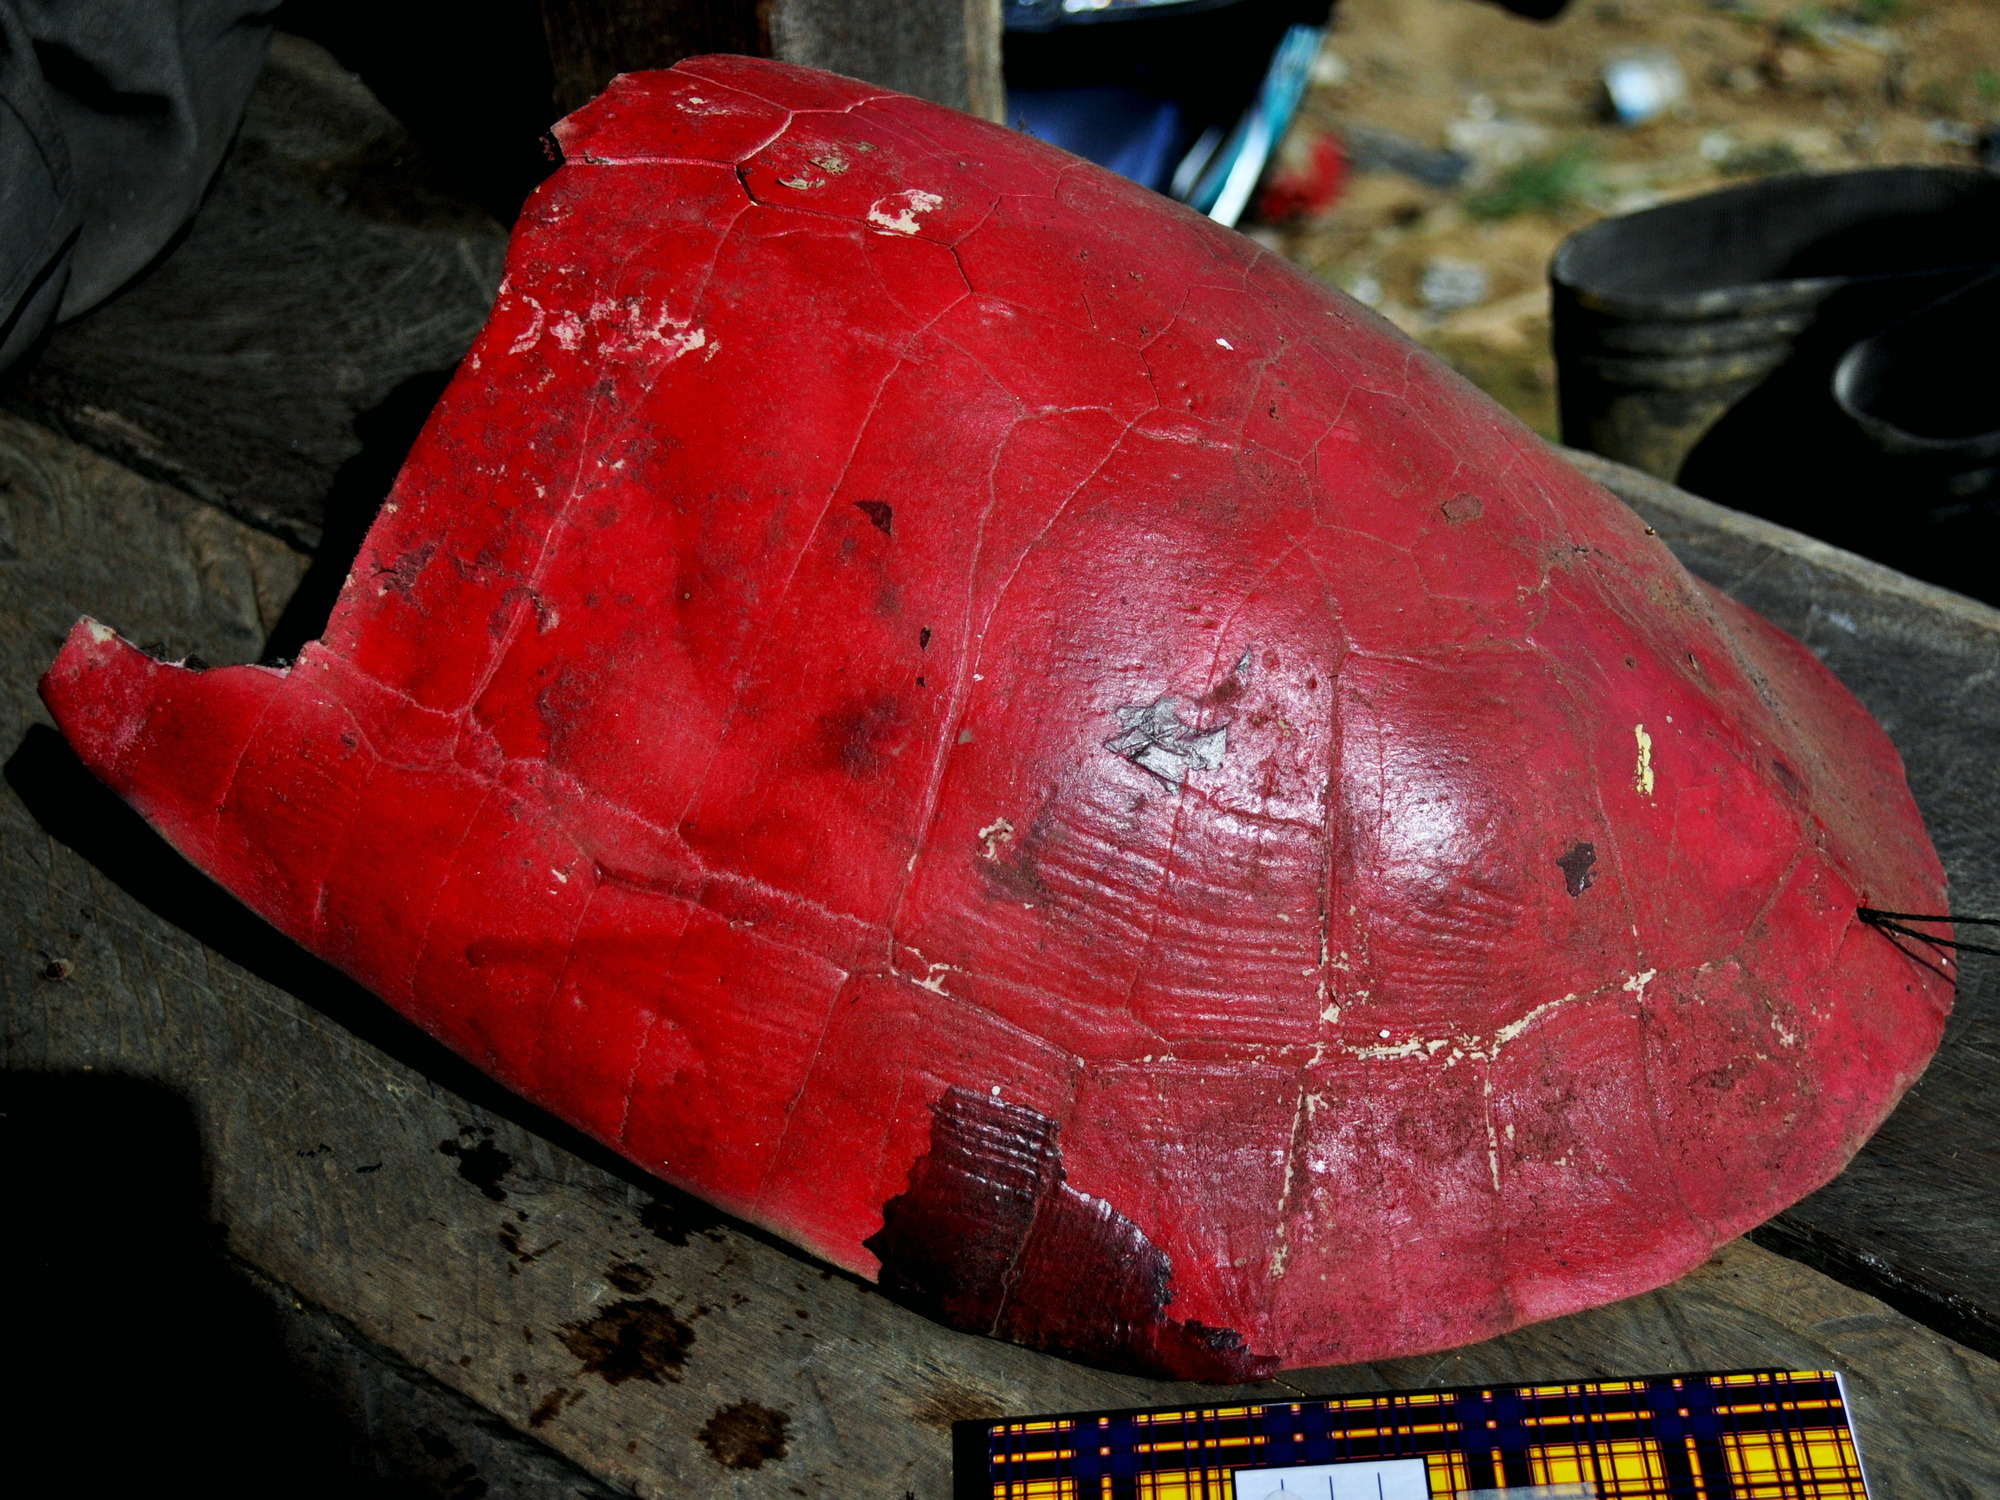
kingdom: Animalia
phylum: Chordata
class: Testudines
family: Geoemydidae
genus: Orlitia
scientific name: Orlitia borneensis
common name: Century turtle
